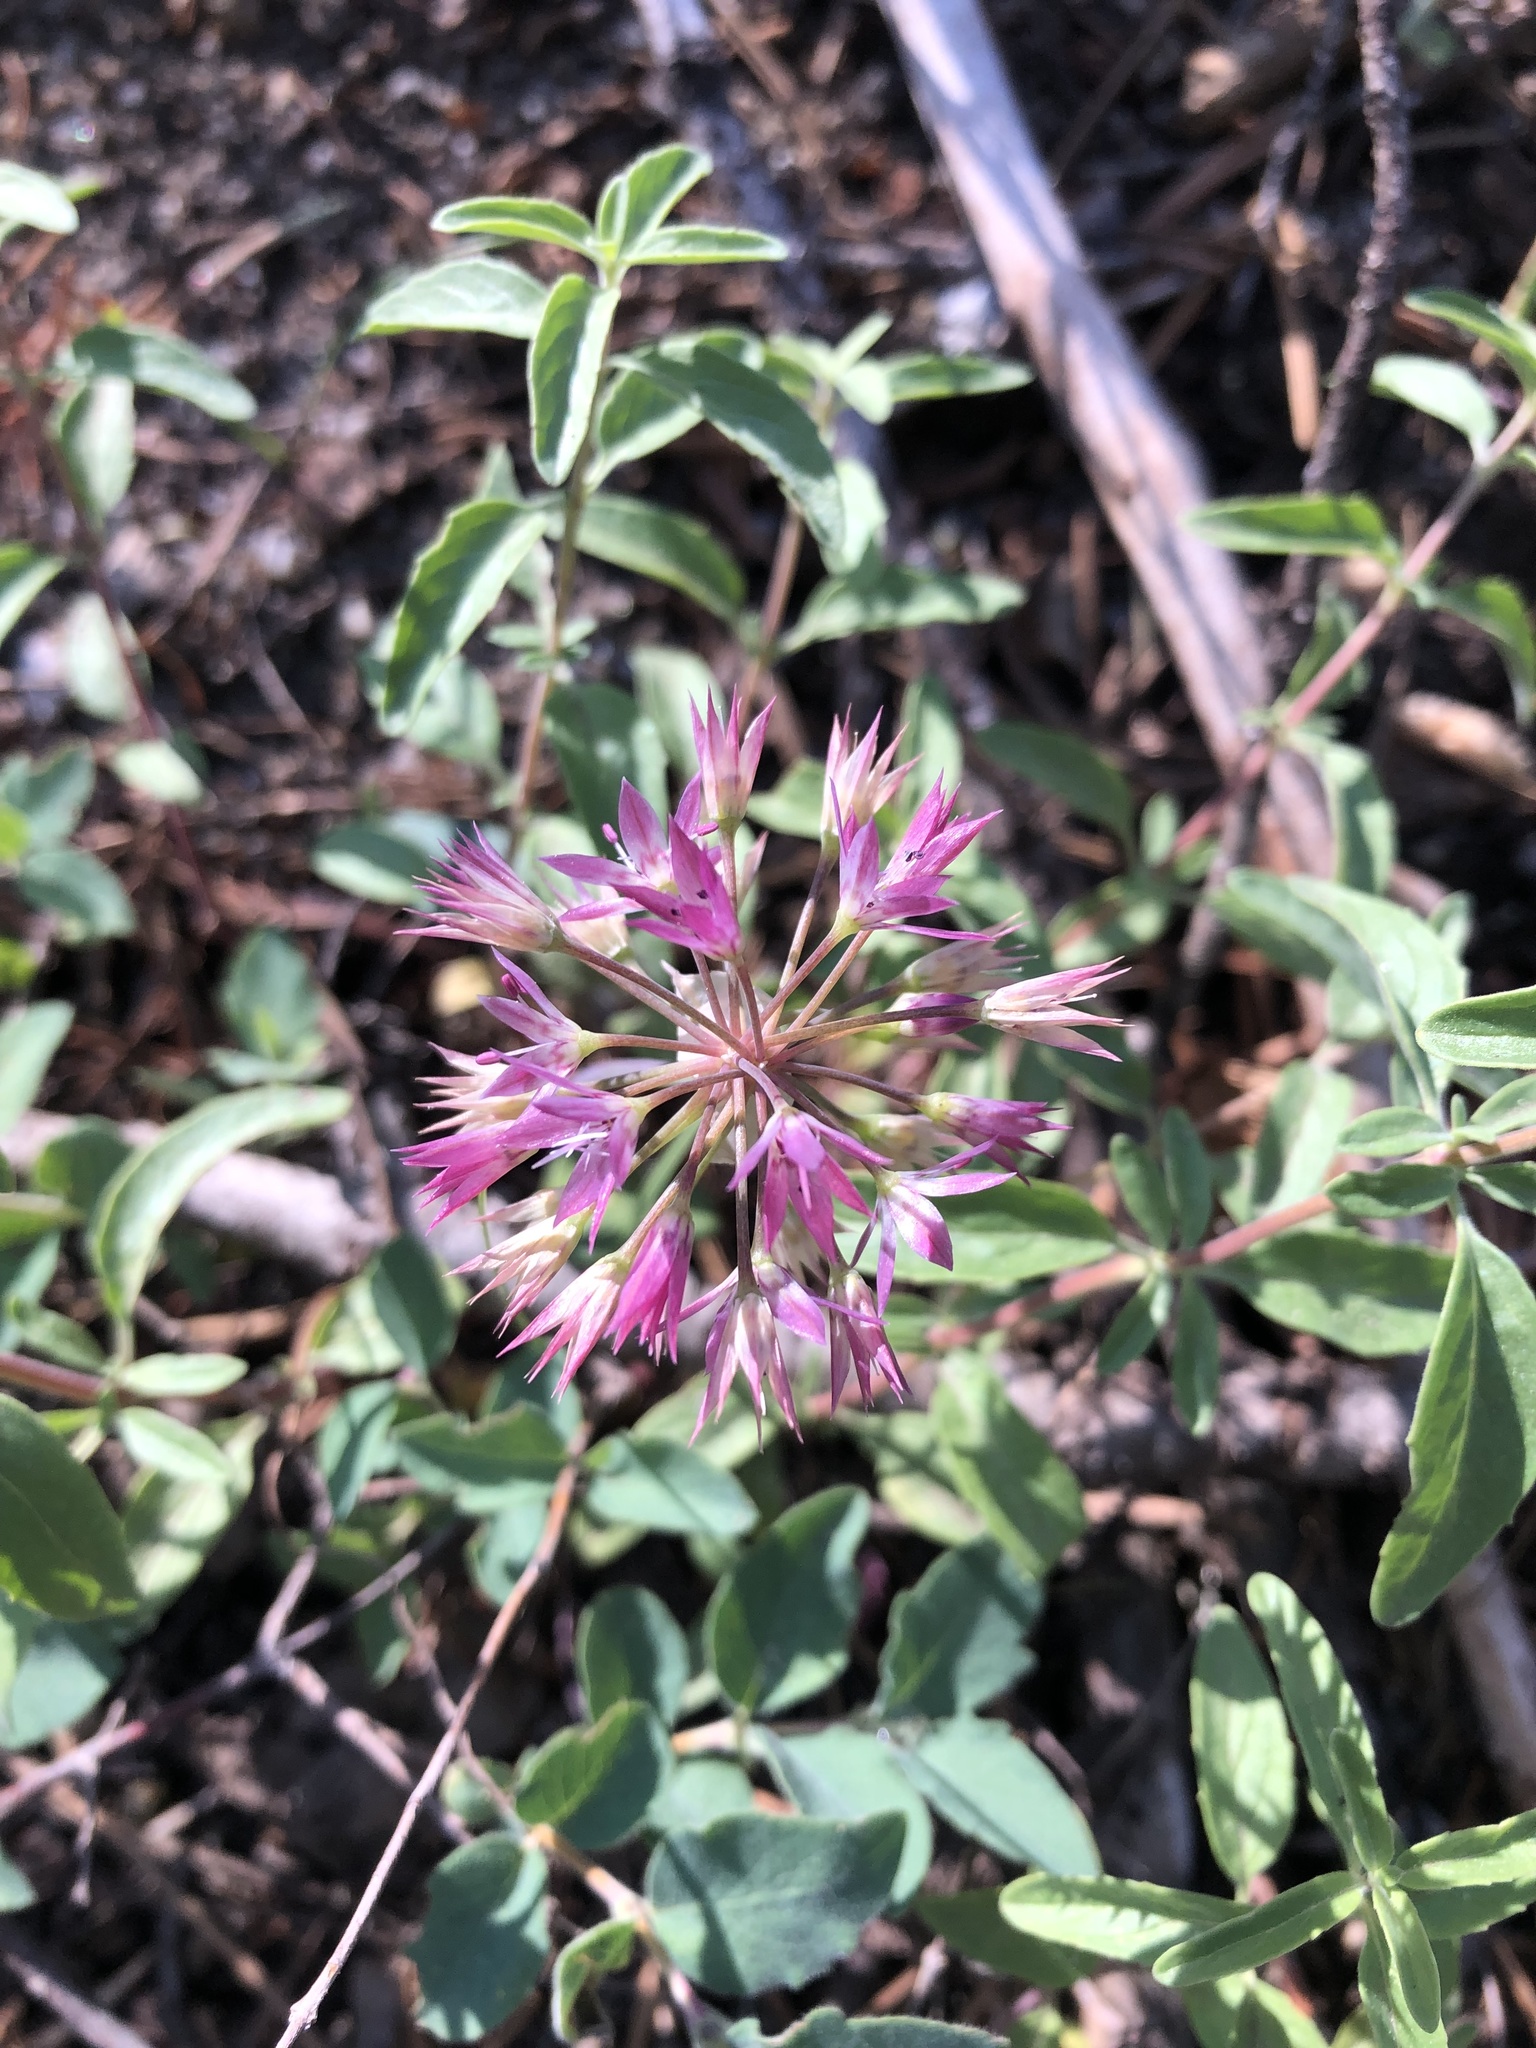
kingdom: Plantae
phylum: Tracheophyta
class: Liliopsida
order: Asparagales
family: Amaryllidaceae
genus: Allium
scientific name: Allium campanulatum
